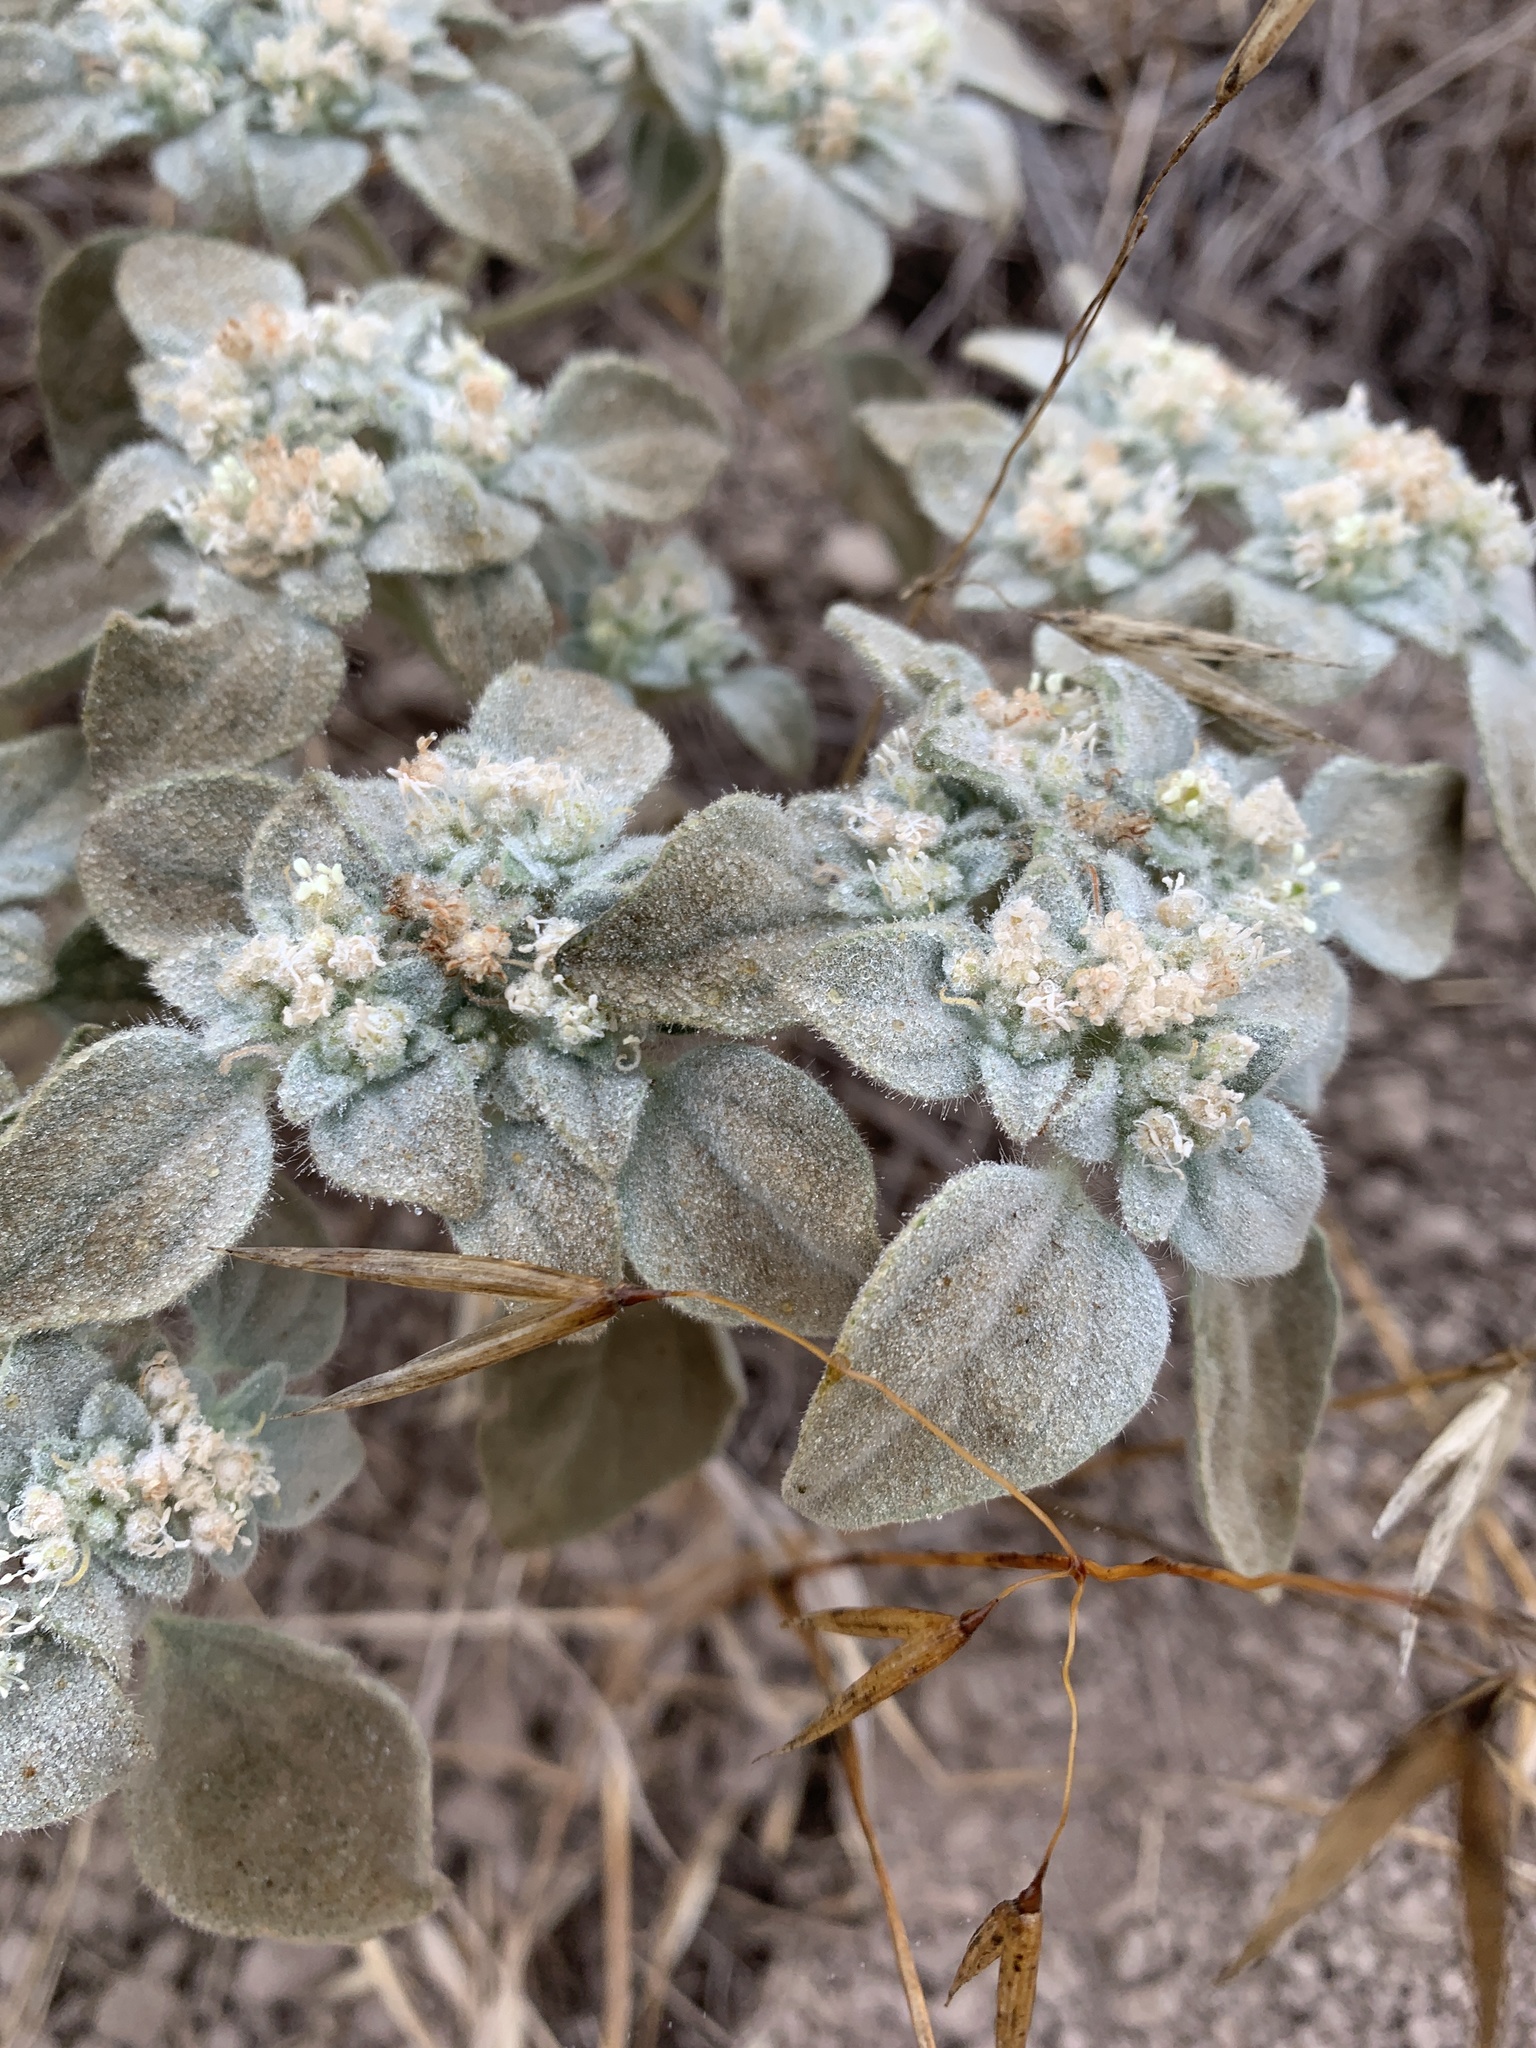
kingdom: Plantae
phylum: Tracheophyta
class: Magnoliopsida
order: Malpighiales
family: Euphorbiaceae
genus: Croton
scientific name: Croton setiger
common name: Dove weed
